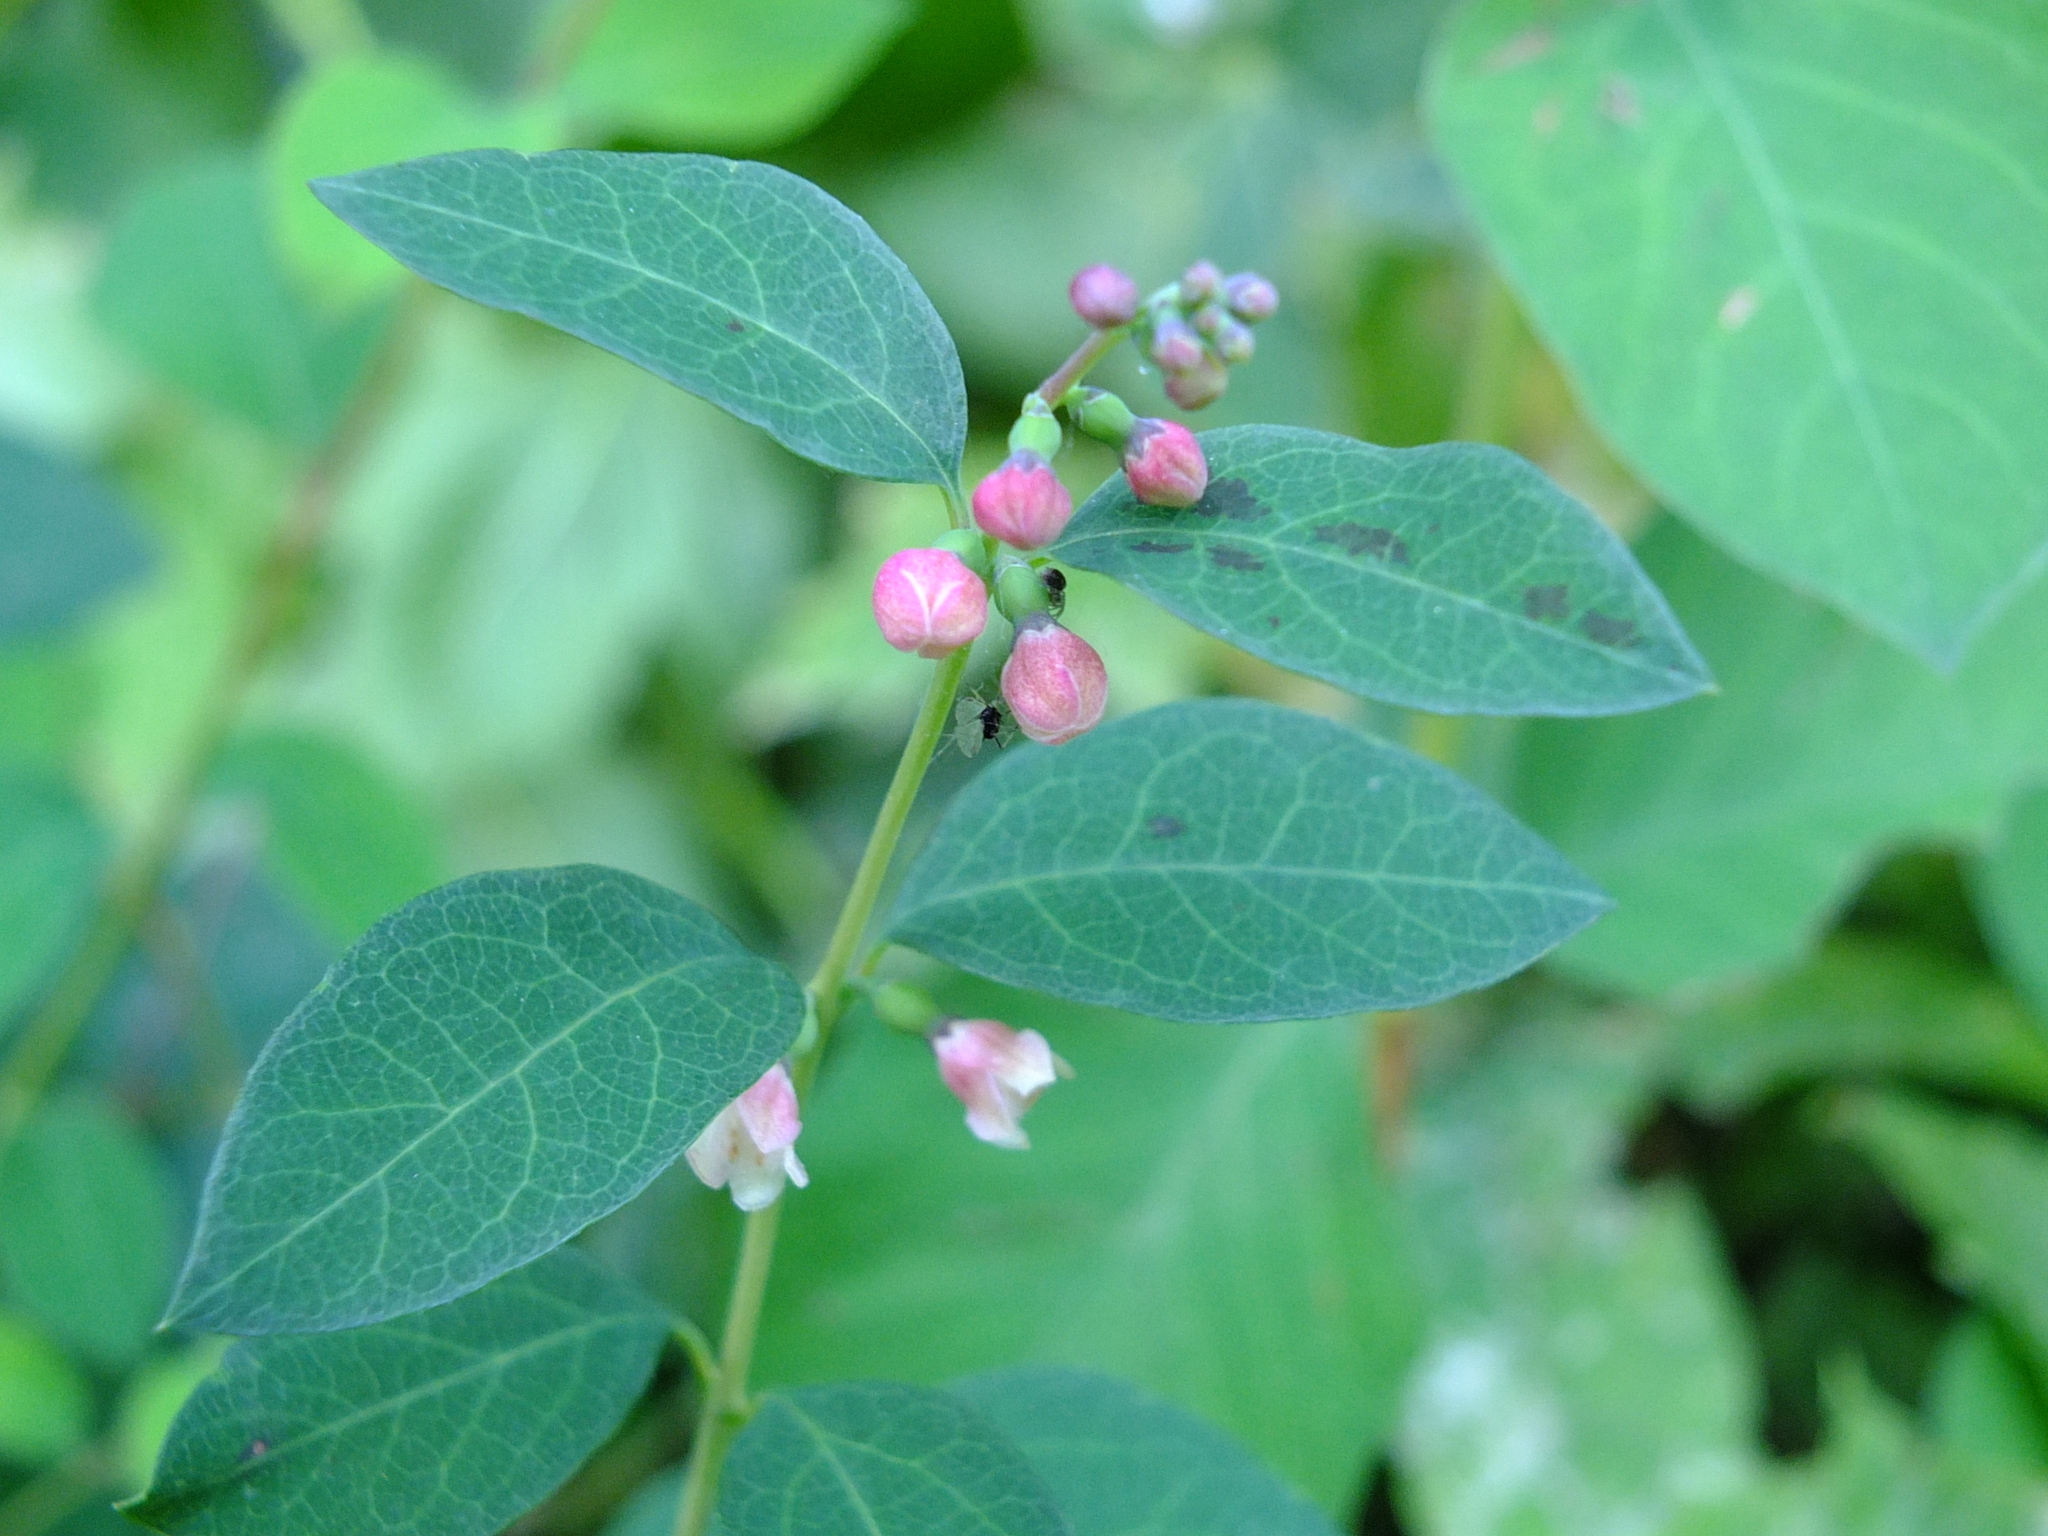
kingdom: Plantae
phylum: Tracheophyta
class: Magnoliopsida
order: Dipsacales
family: Caprifoliaceae
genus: Symphoricarpos
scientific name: Symphoricarpos albus
